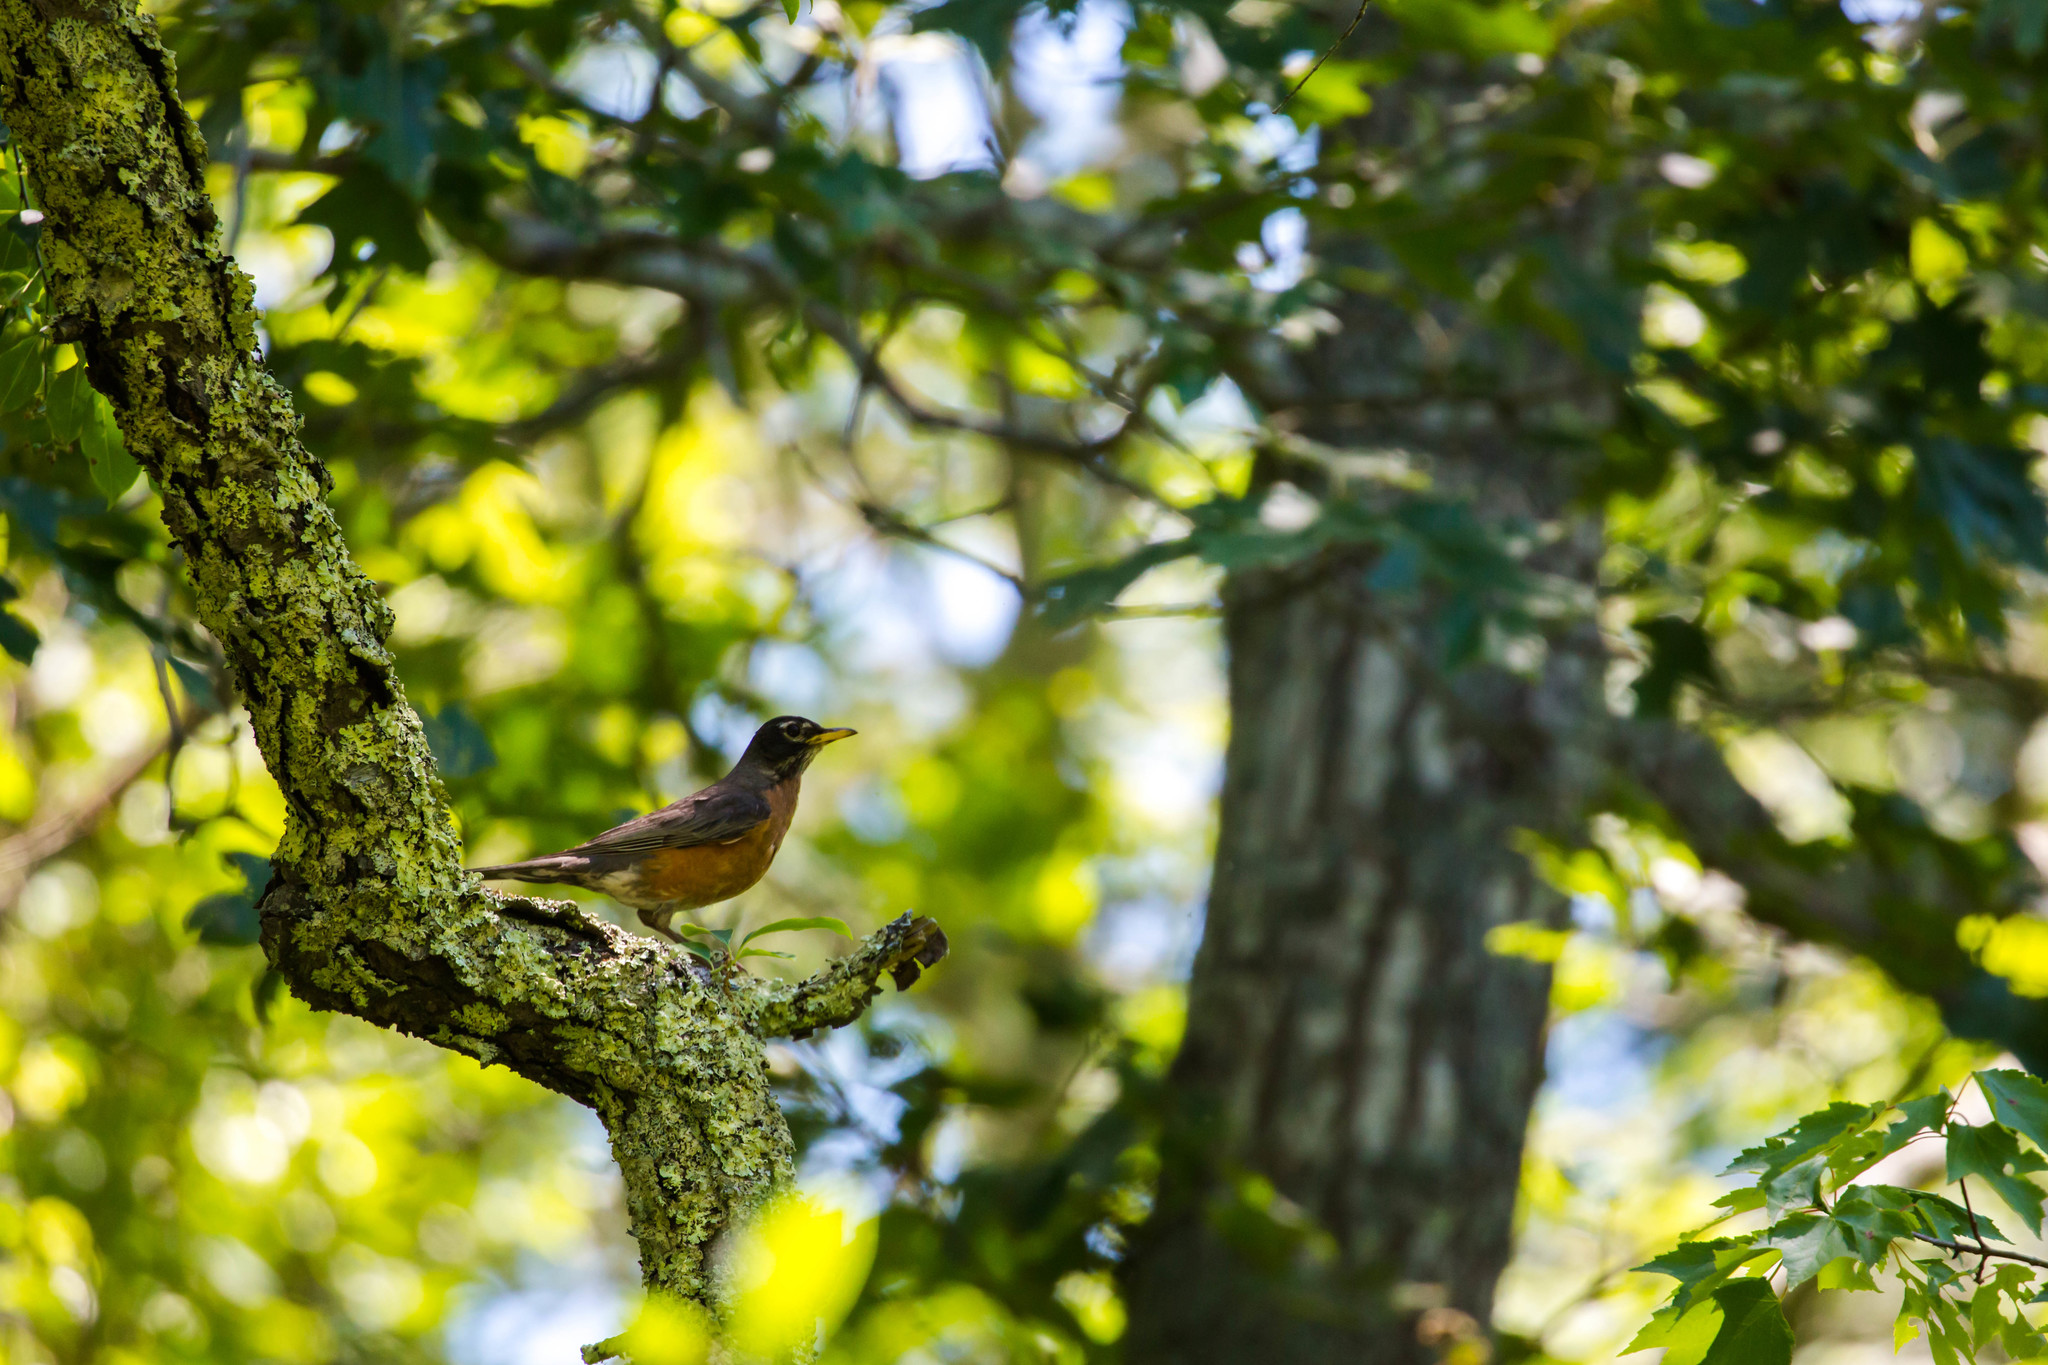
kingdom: Animalia
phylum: Chordata
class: Aves
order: Passeriformes
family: Turdidae
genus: Turdus
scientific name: Turdus migratorius
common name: American robin
